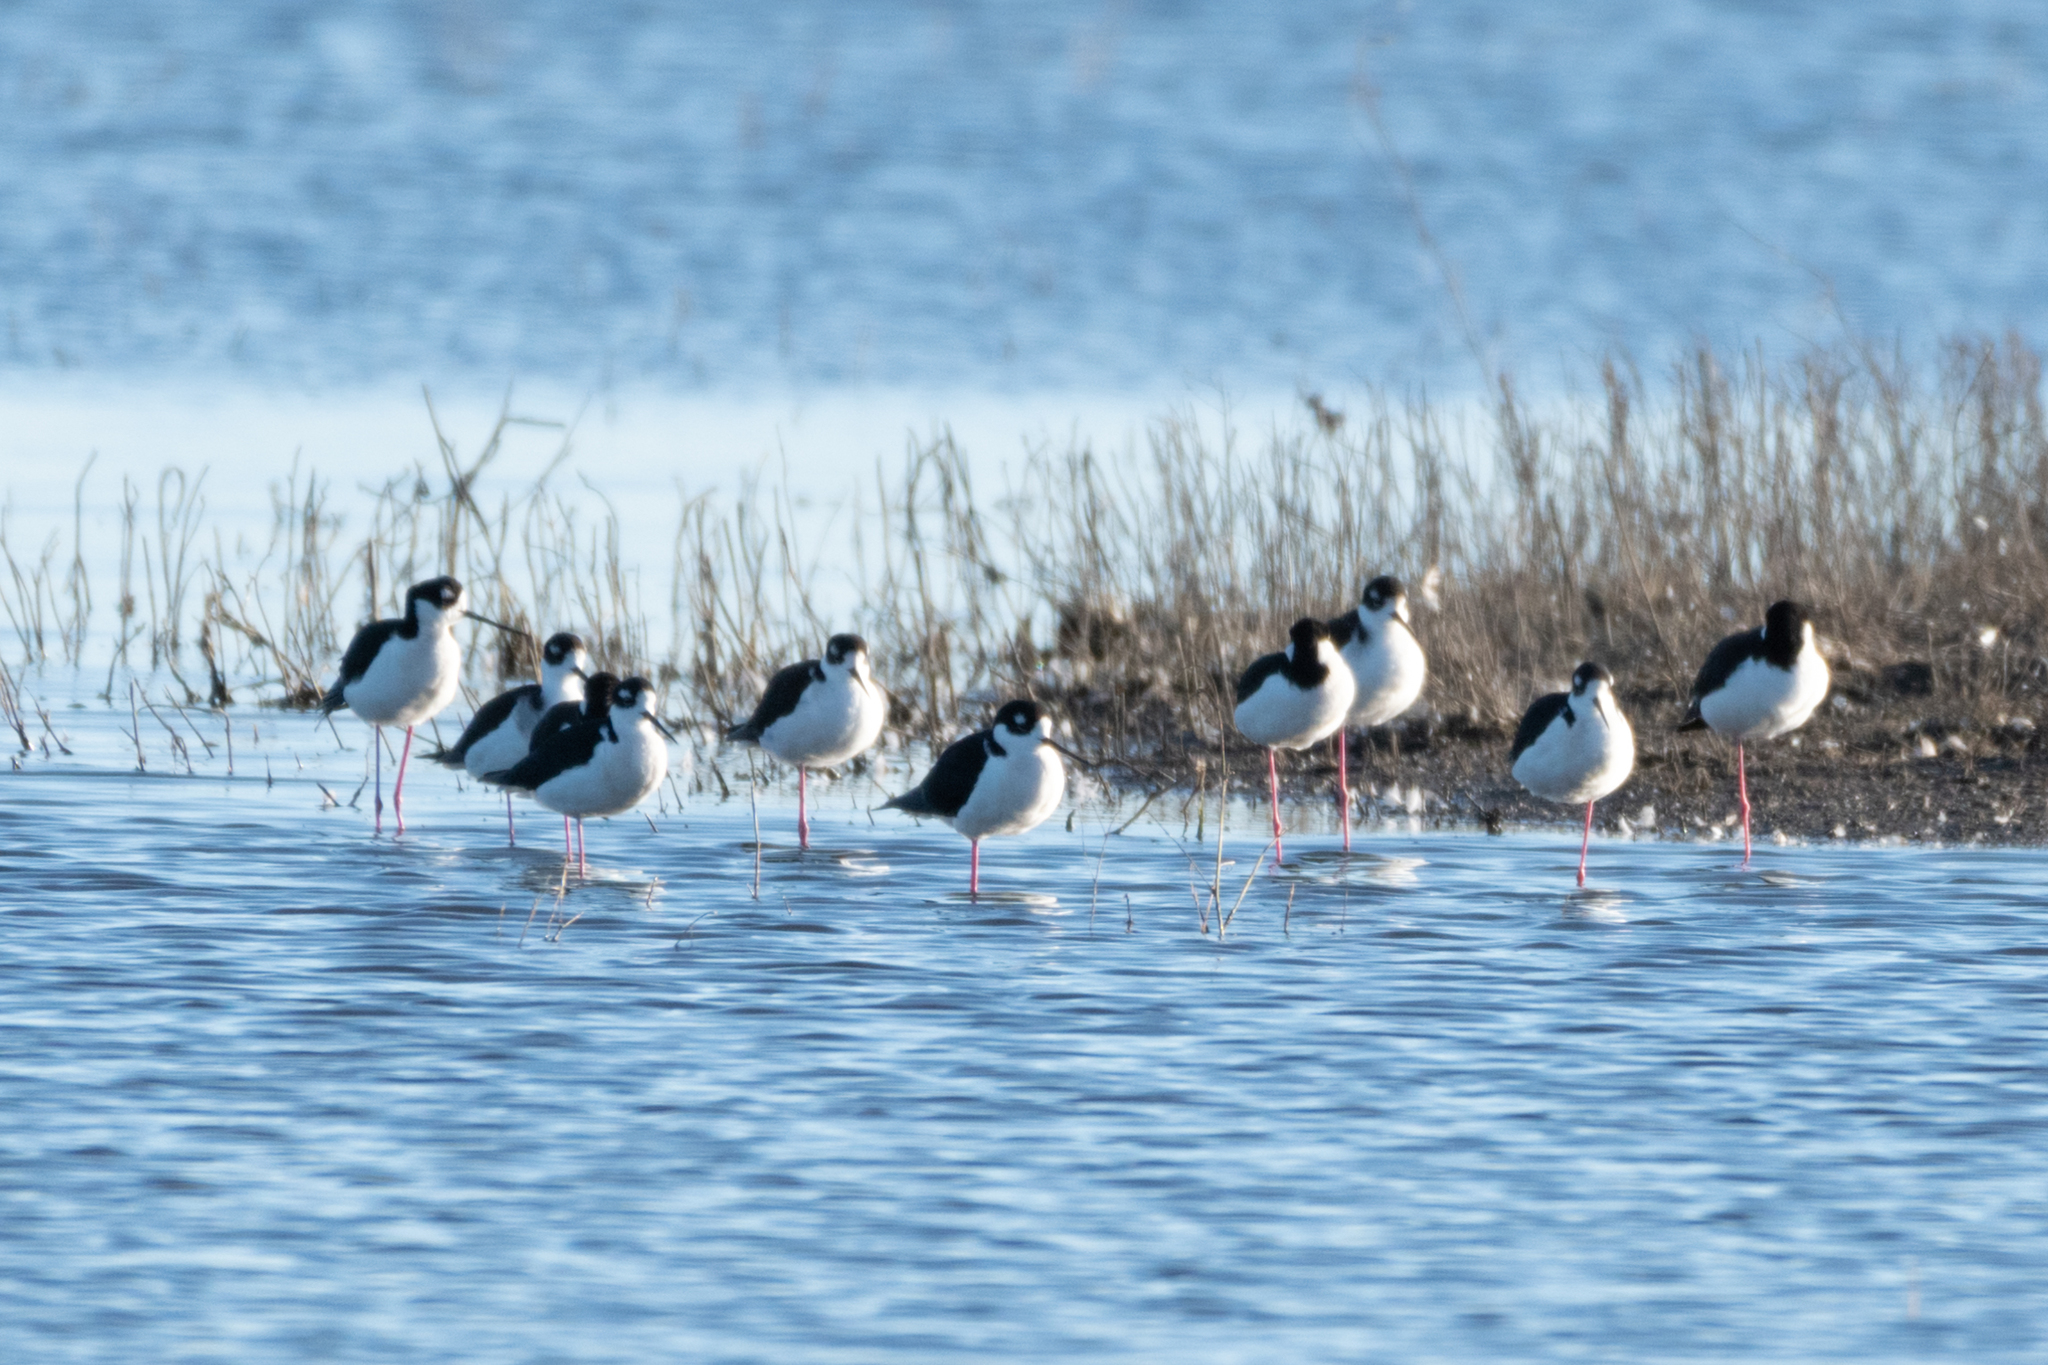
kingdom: Animalia
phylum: Chordata
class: Aves
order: Charadriiformes
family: Recurvirostridae
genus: Himantopus
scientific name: Himantopus mexicanus
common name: Black-necked stilt
